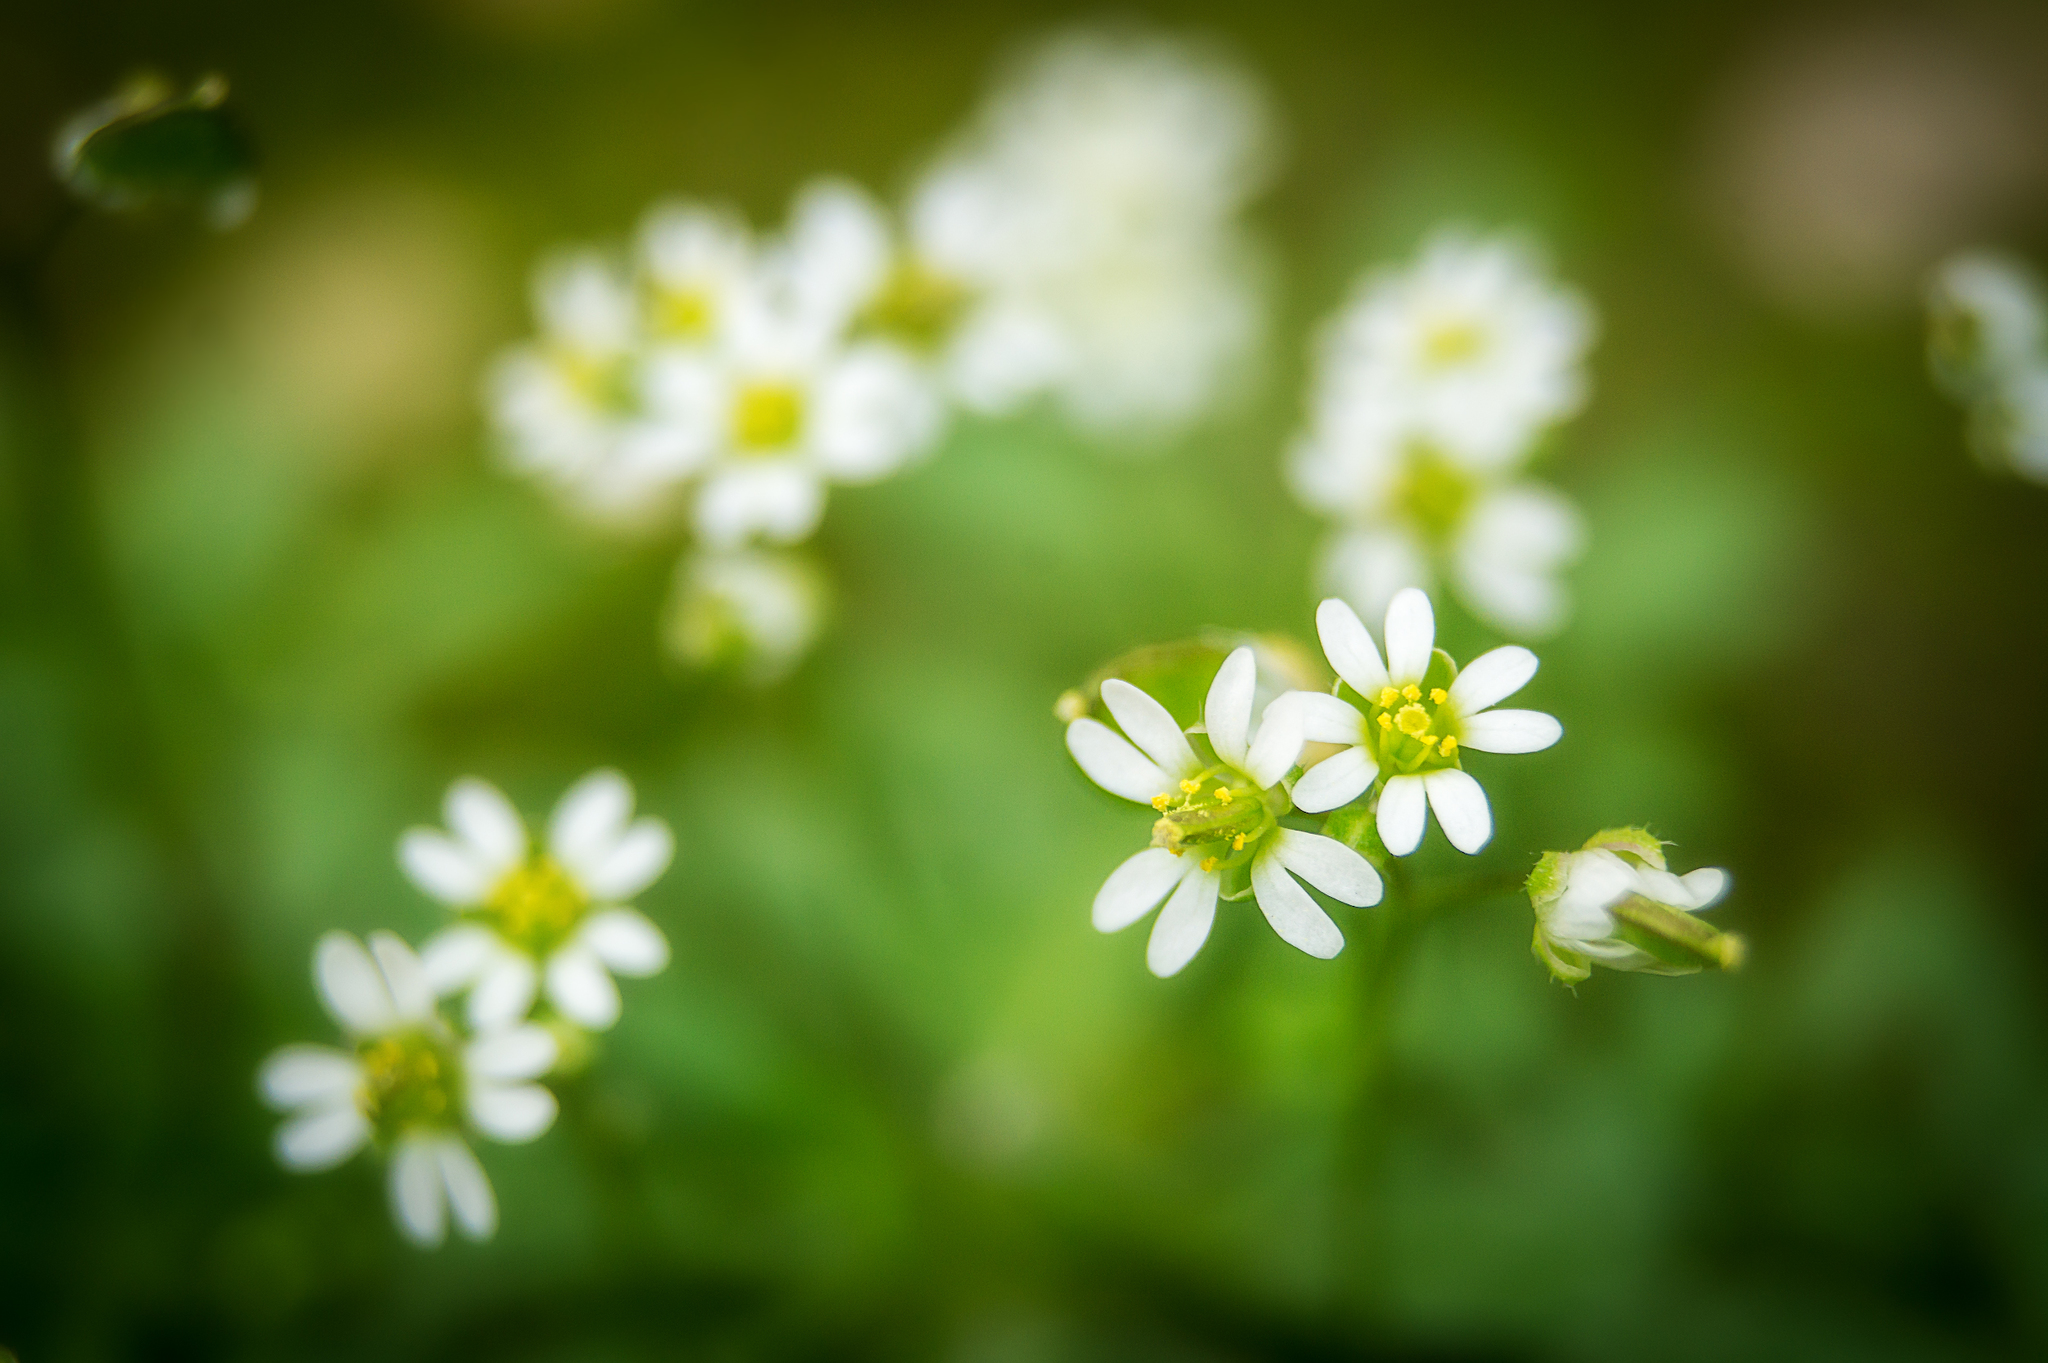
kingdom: Plantae
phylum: Tracheophyta
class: Magnoliopsida
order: Brassicales
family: Brassicaceae
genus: Draba
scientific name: Draba verna
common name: Spring draba
